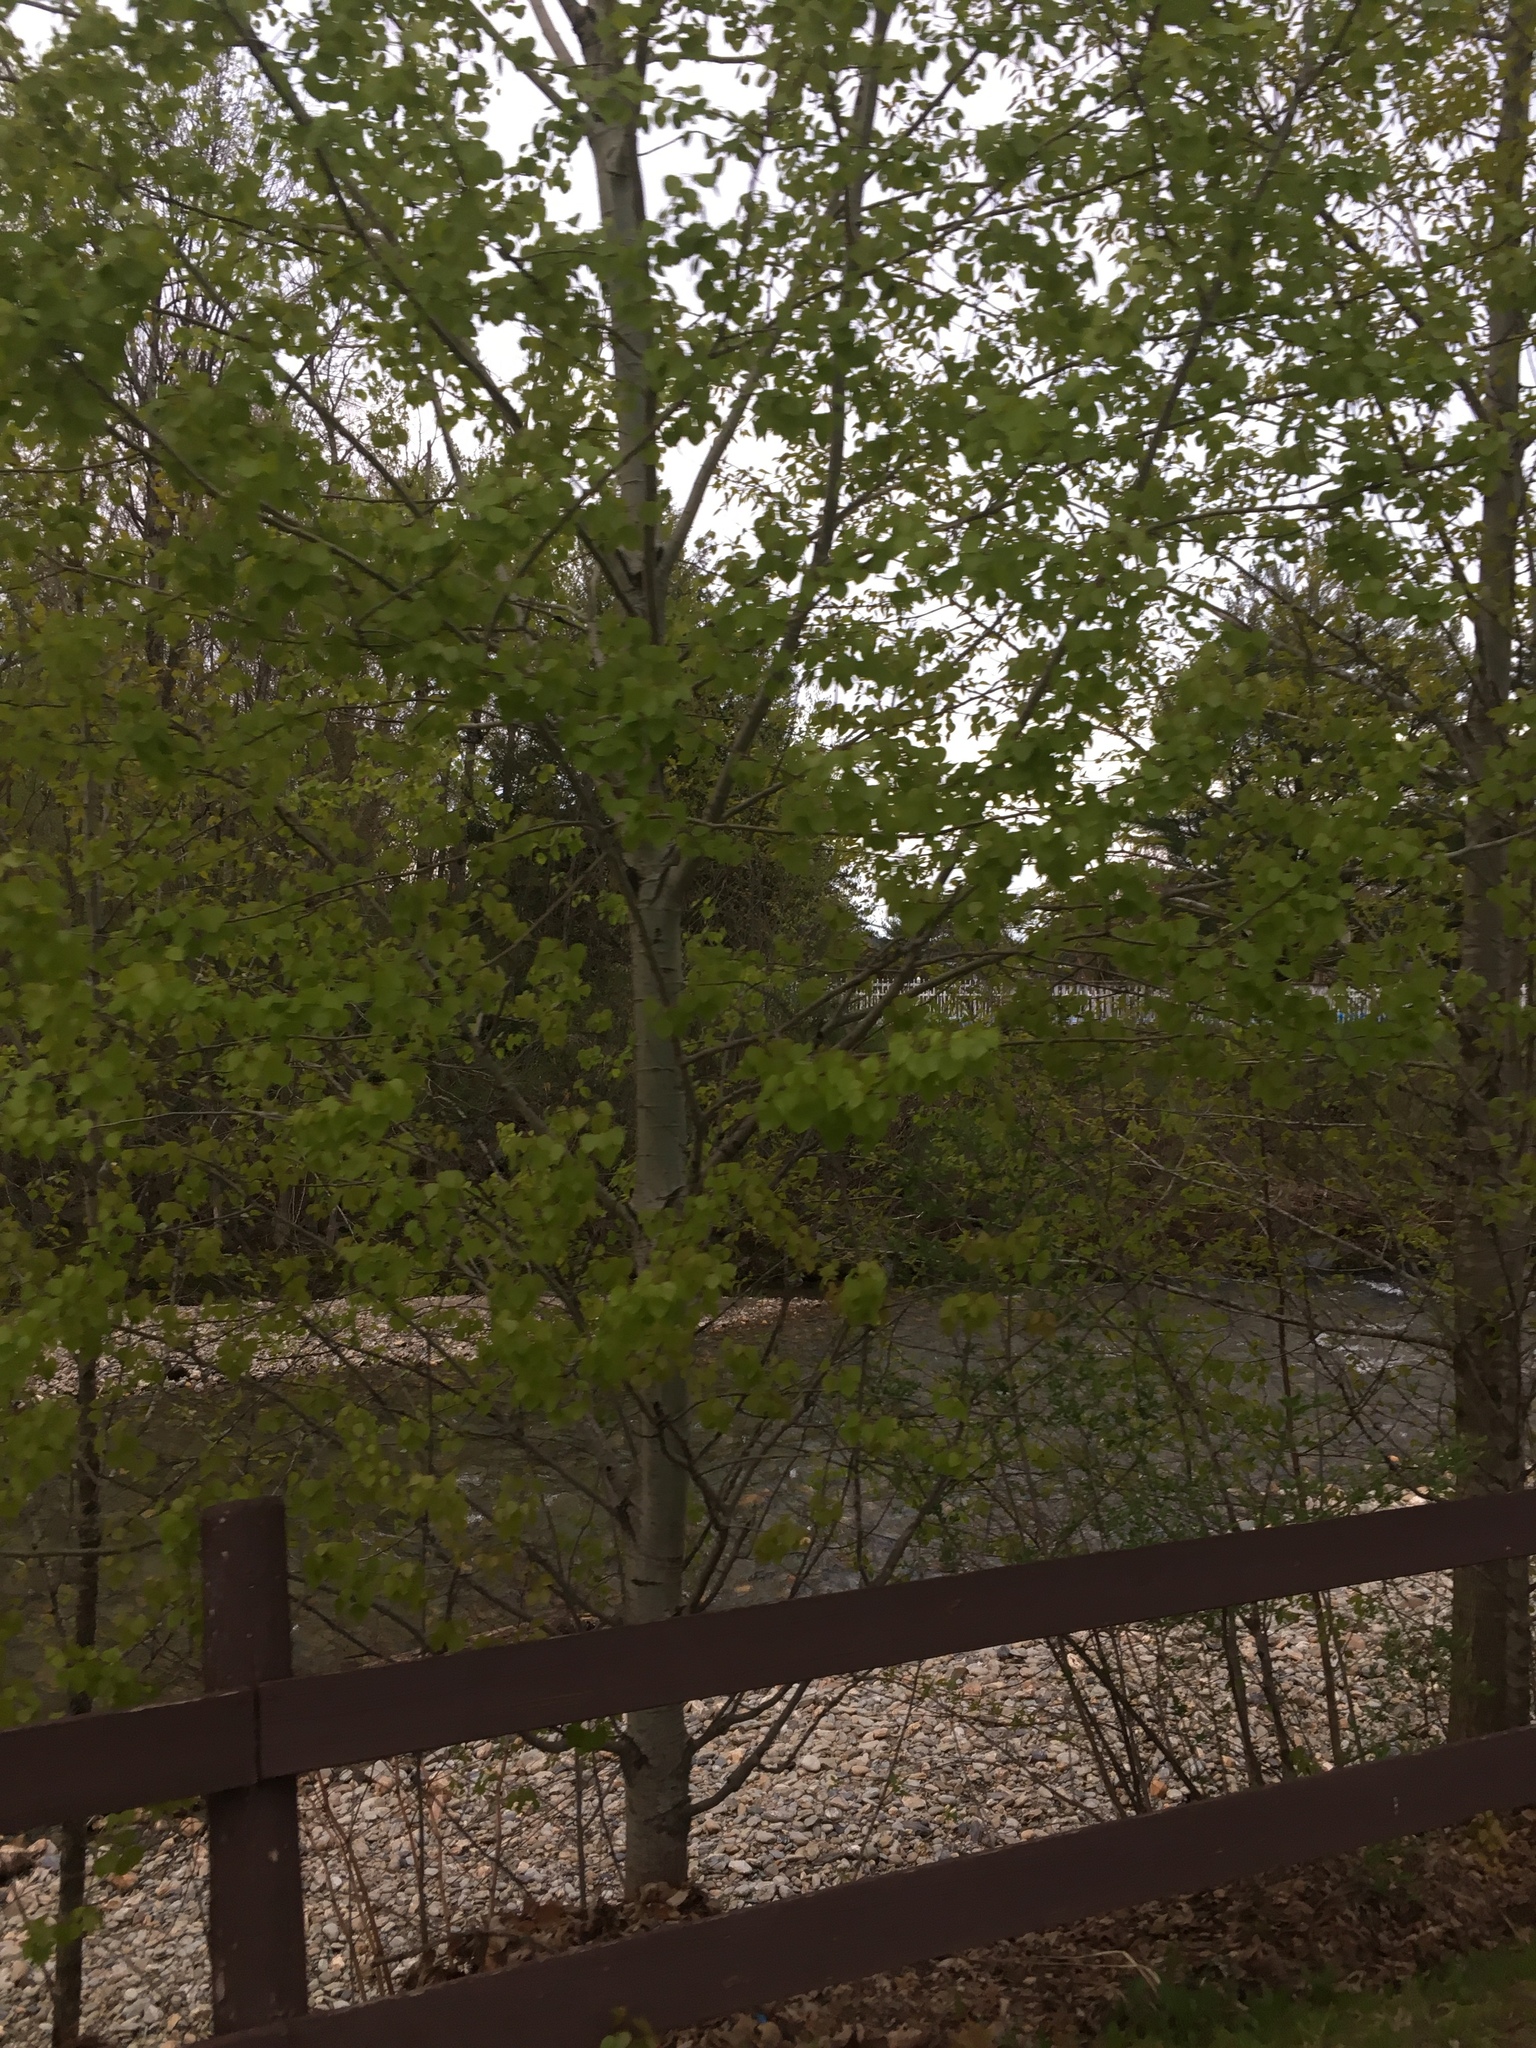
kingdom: Plantae
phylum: Tracheophyta
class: Magnoliopsida
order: Malpighiales
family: Salicaceae
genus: Populus
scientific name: Populus tremuloides
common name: Quaking aspen
